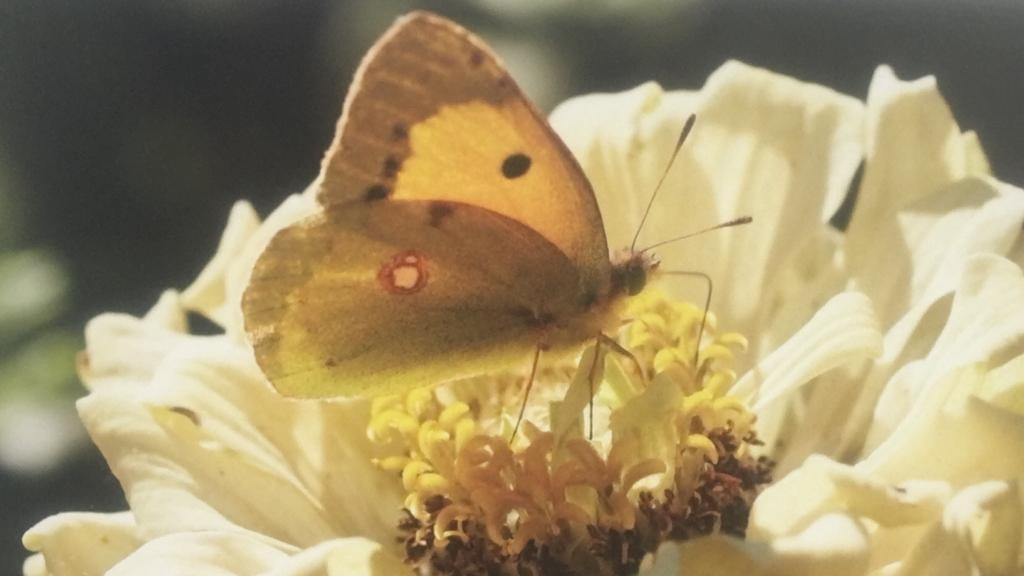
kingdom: Animalia
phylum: Arthropoda
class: Insecta
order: Lepidoptera
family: Pieridae
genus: Colias
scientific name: Colias croceus
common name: Clouded yellow
